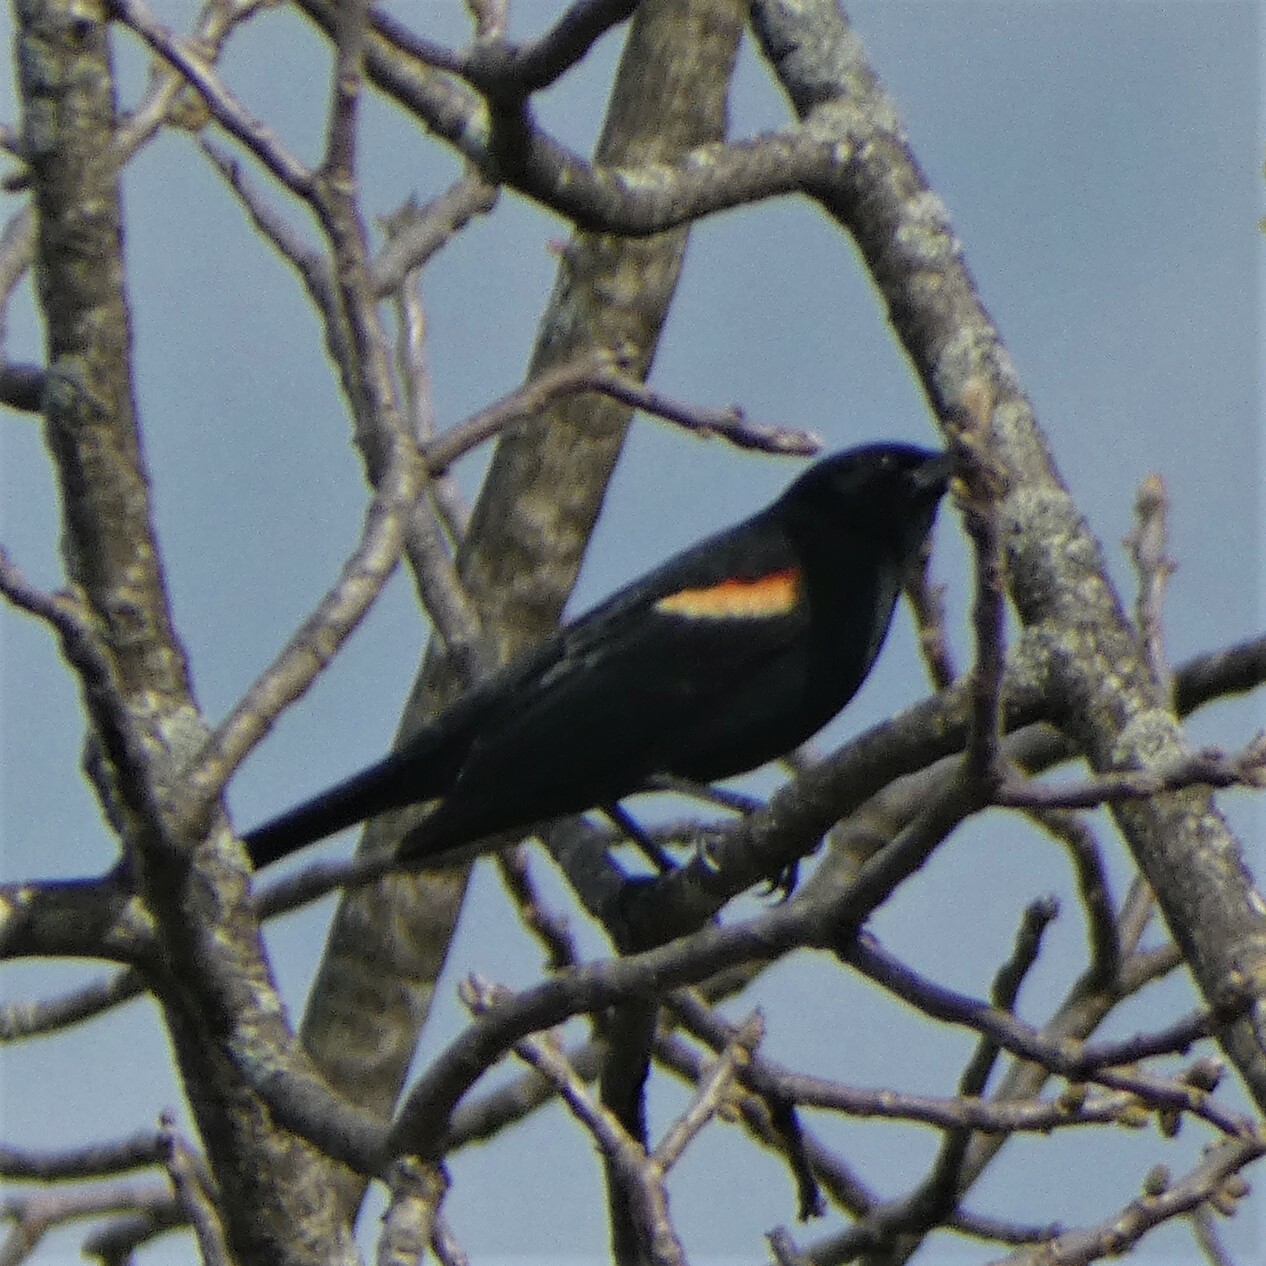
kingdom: Animalia
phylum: Chordata
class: Aves
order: Passeriformes
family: Icteridae
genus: Agelaius
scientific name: Agelaius phoeniceus
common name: Red-winged blackbird
